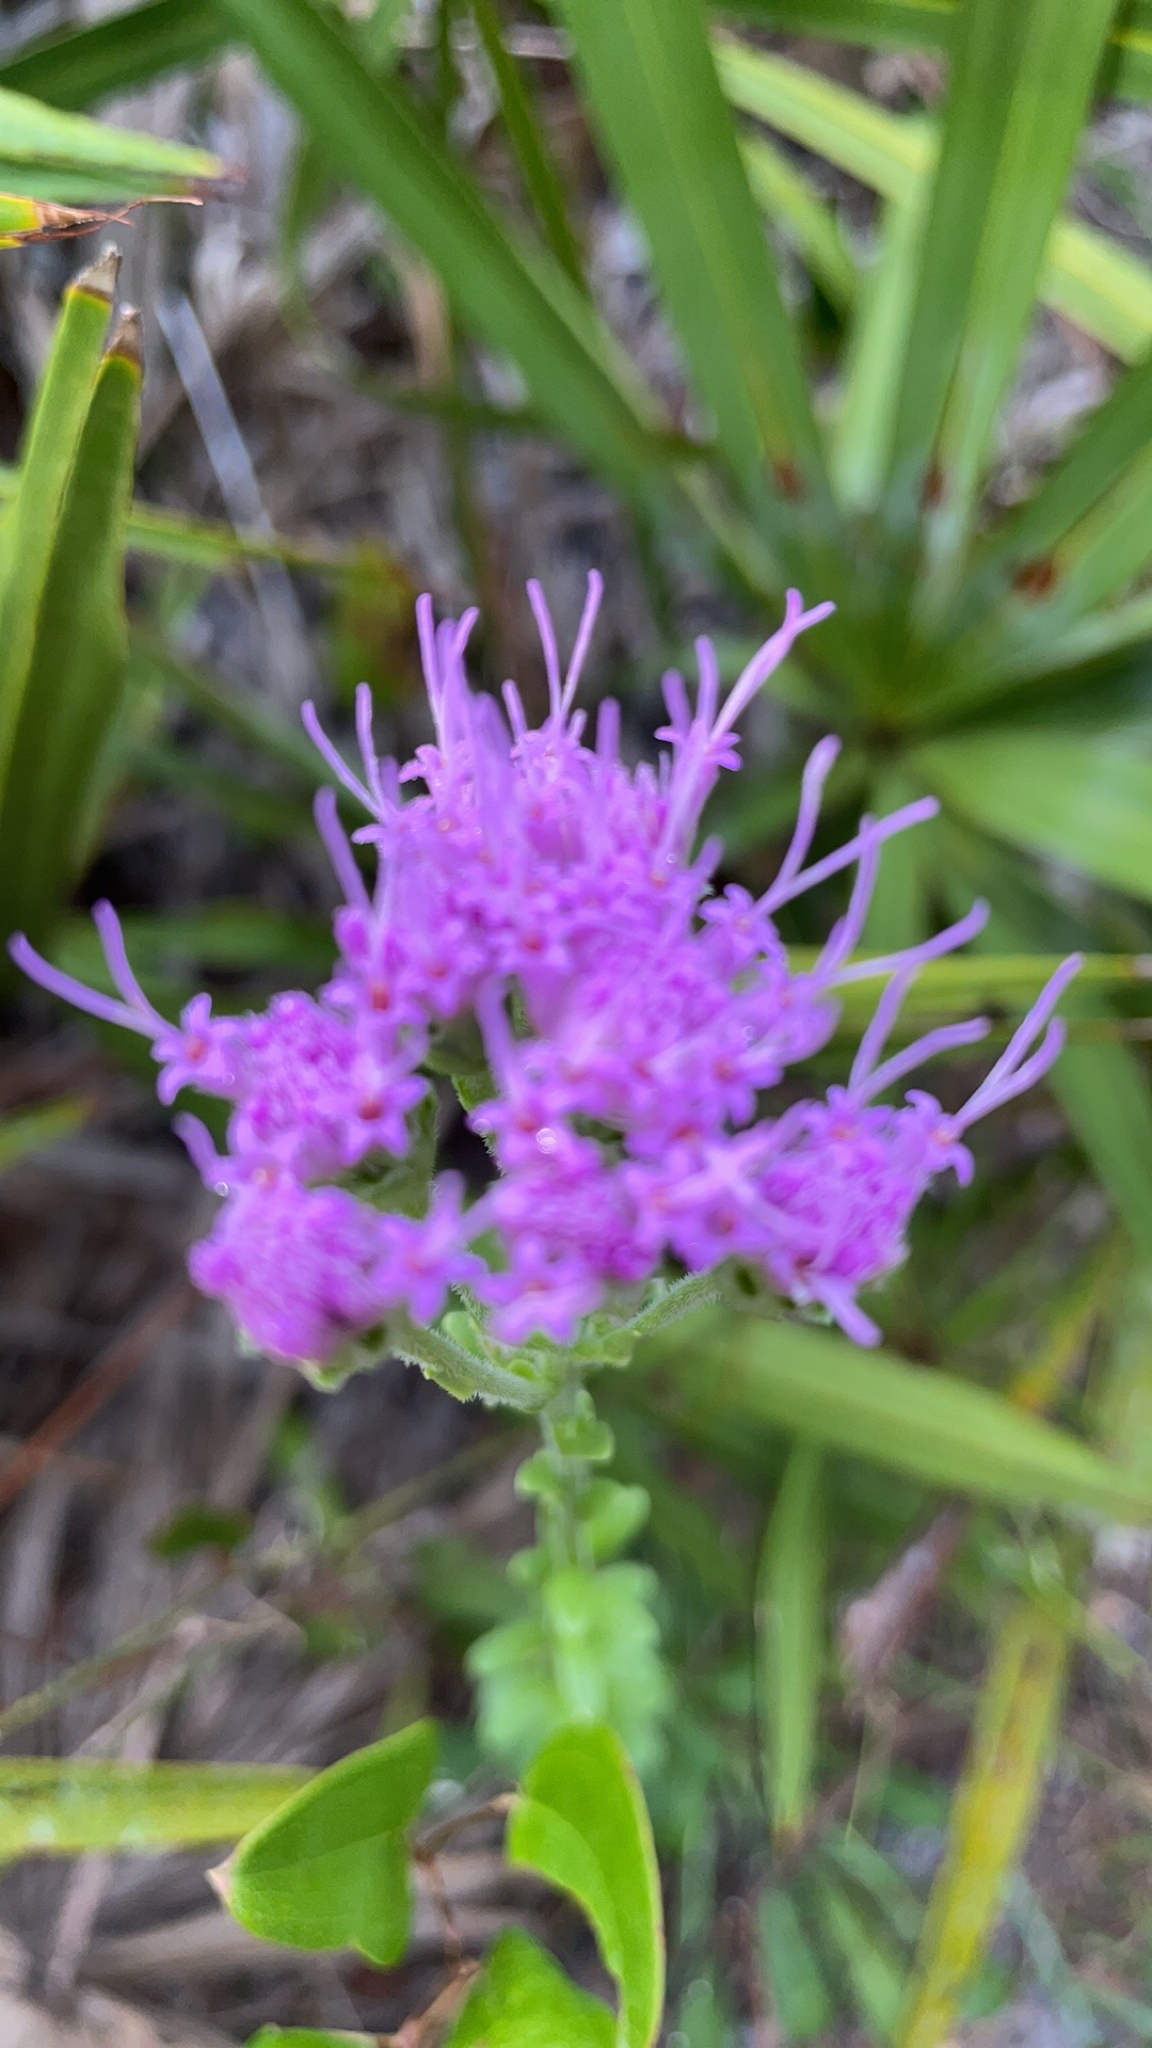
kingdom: Plantae
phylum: Tracheophyta
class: Magnoliopsida
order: Asterales
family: Asteraceae
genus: Carphephorus
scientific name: Carphephorus corymbosus
